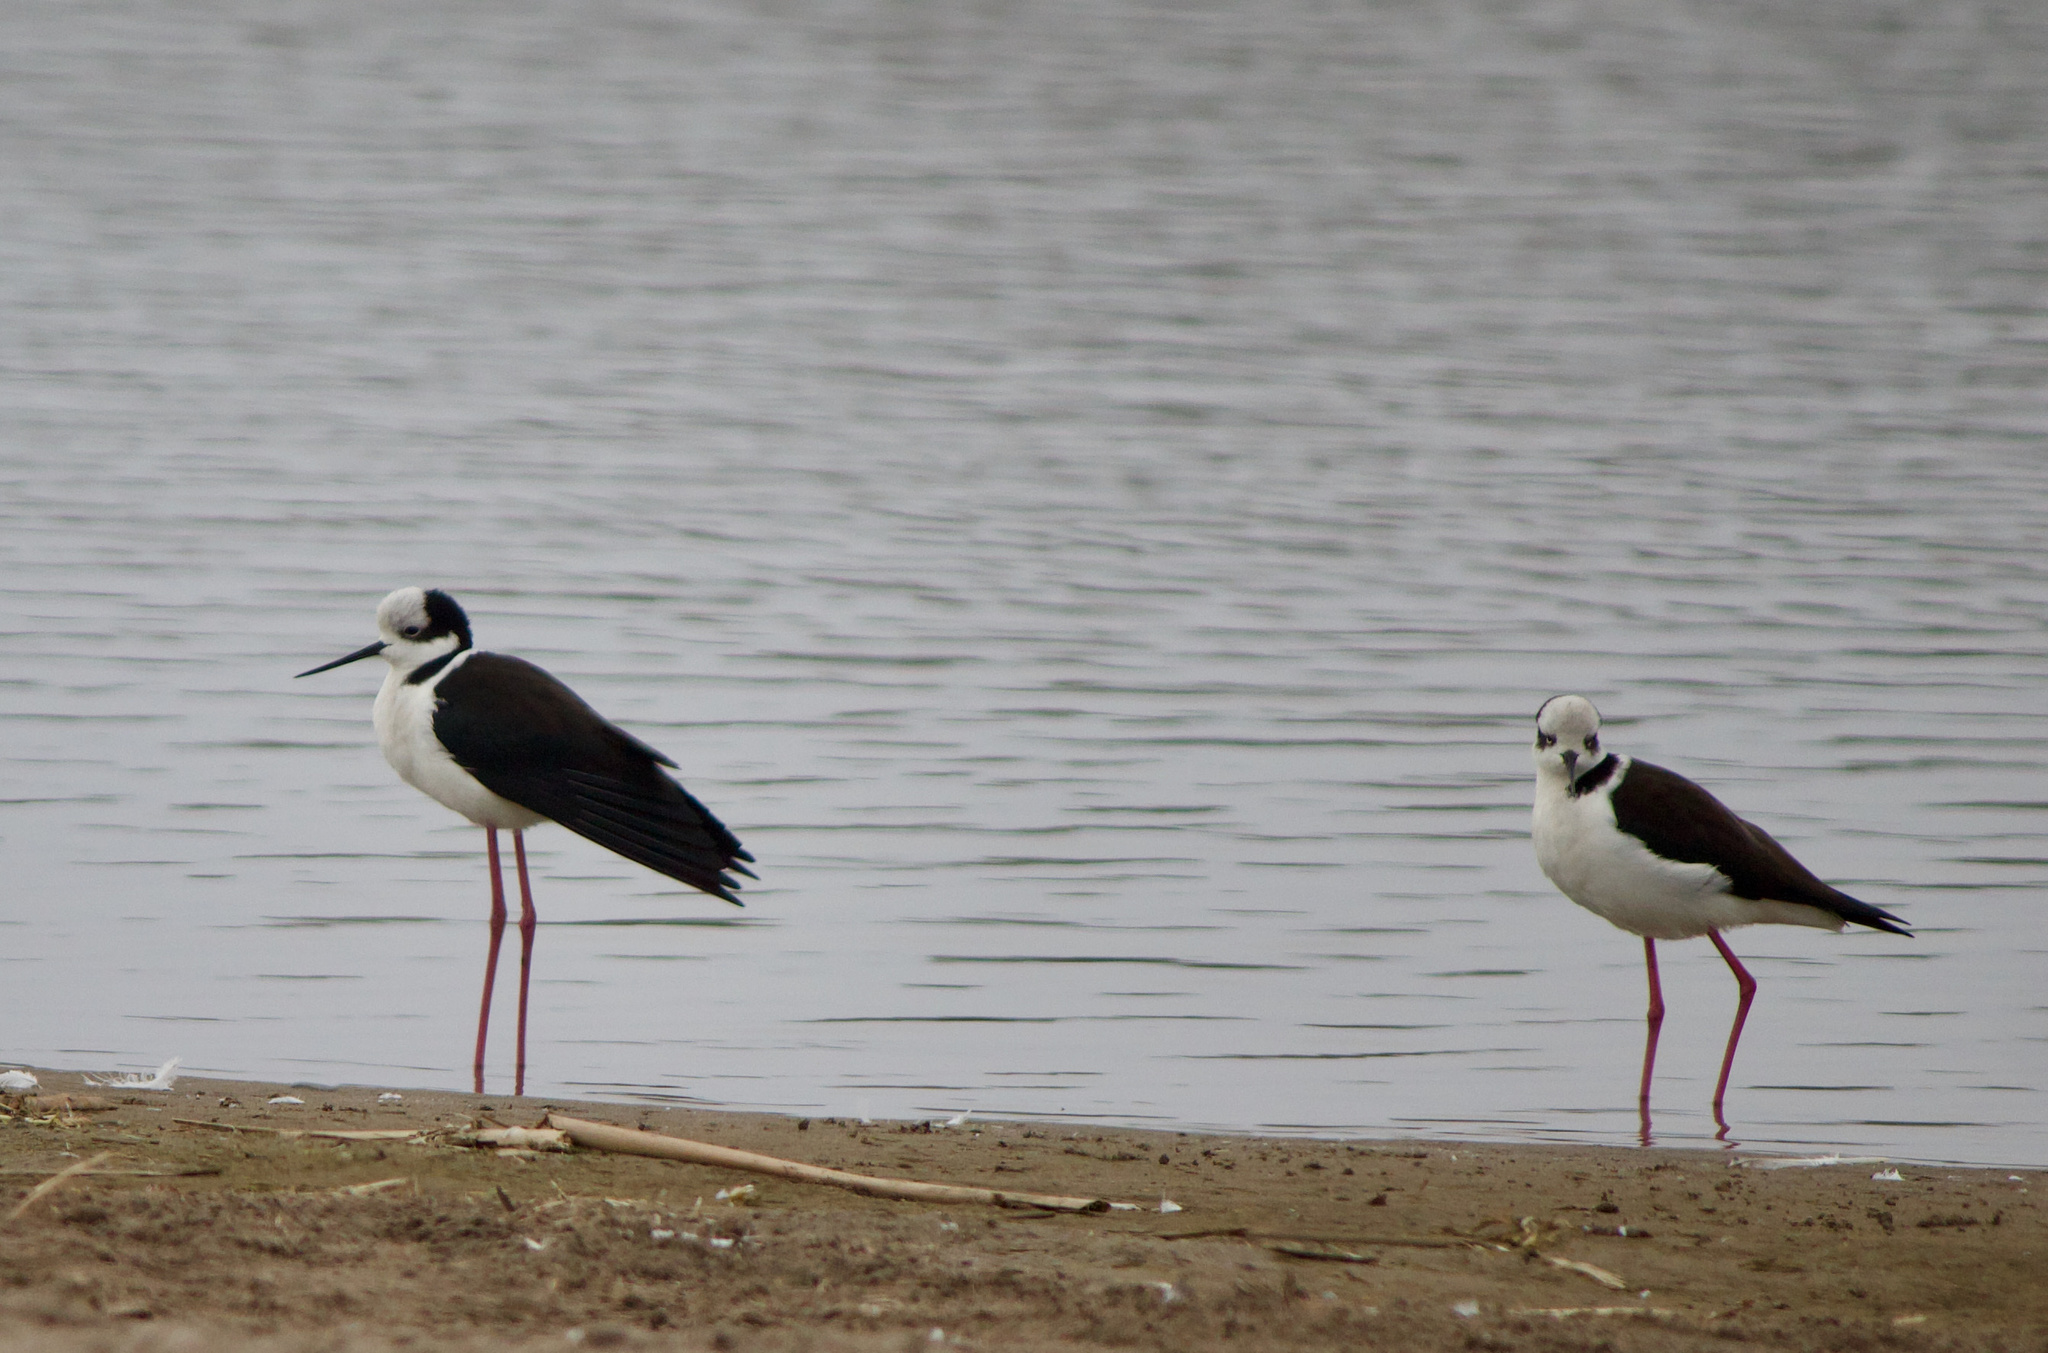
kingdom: Animalia
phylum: Chordata
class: Aves
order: Charadriiformes
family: Recurvirostridae
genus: Himantopus
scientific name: Himantopus mexicanus
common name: Black-necked stilt
